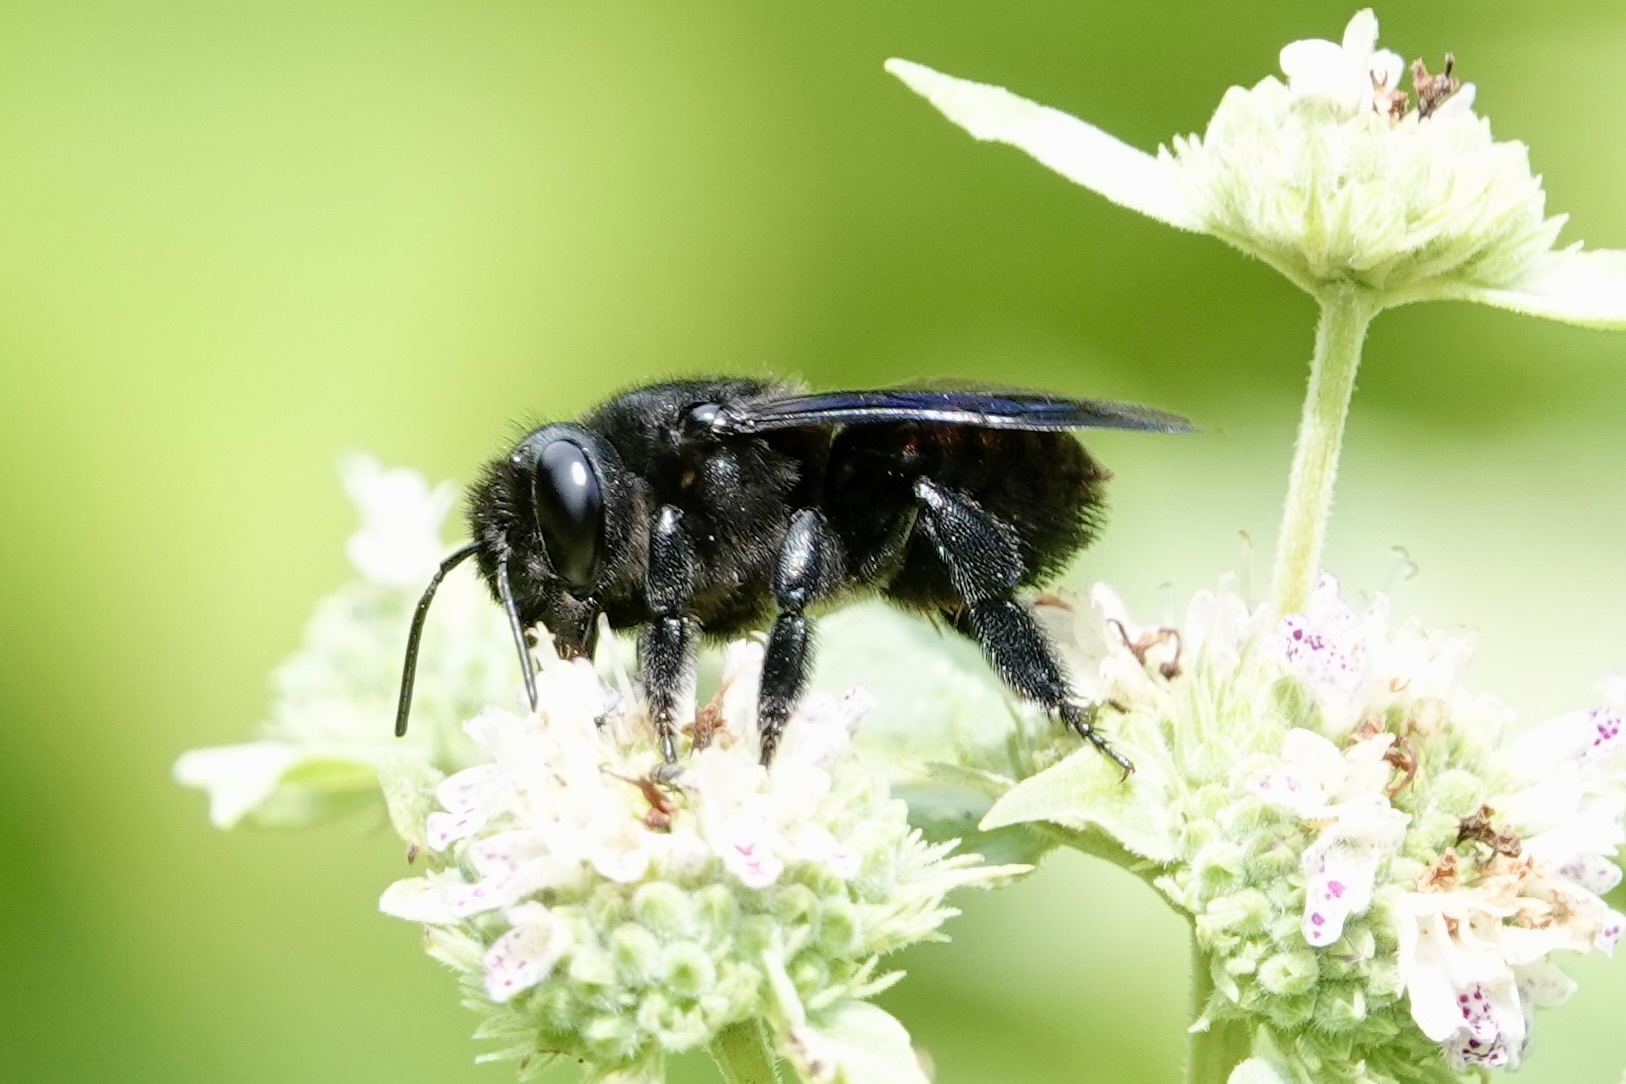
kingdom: Animalia
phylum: Arthropoda
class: Insecta
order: Hymenoptera
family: Megachilidae
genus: Megachile
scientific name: Megachile xylocopoides
